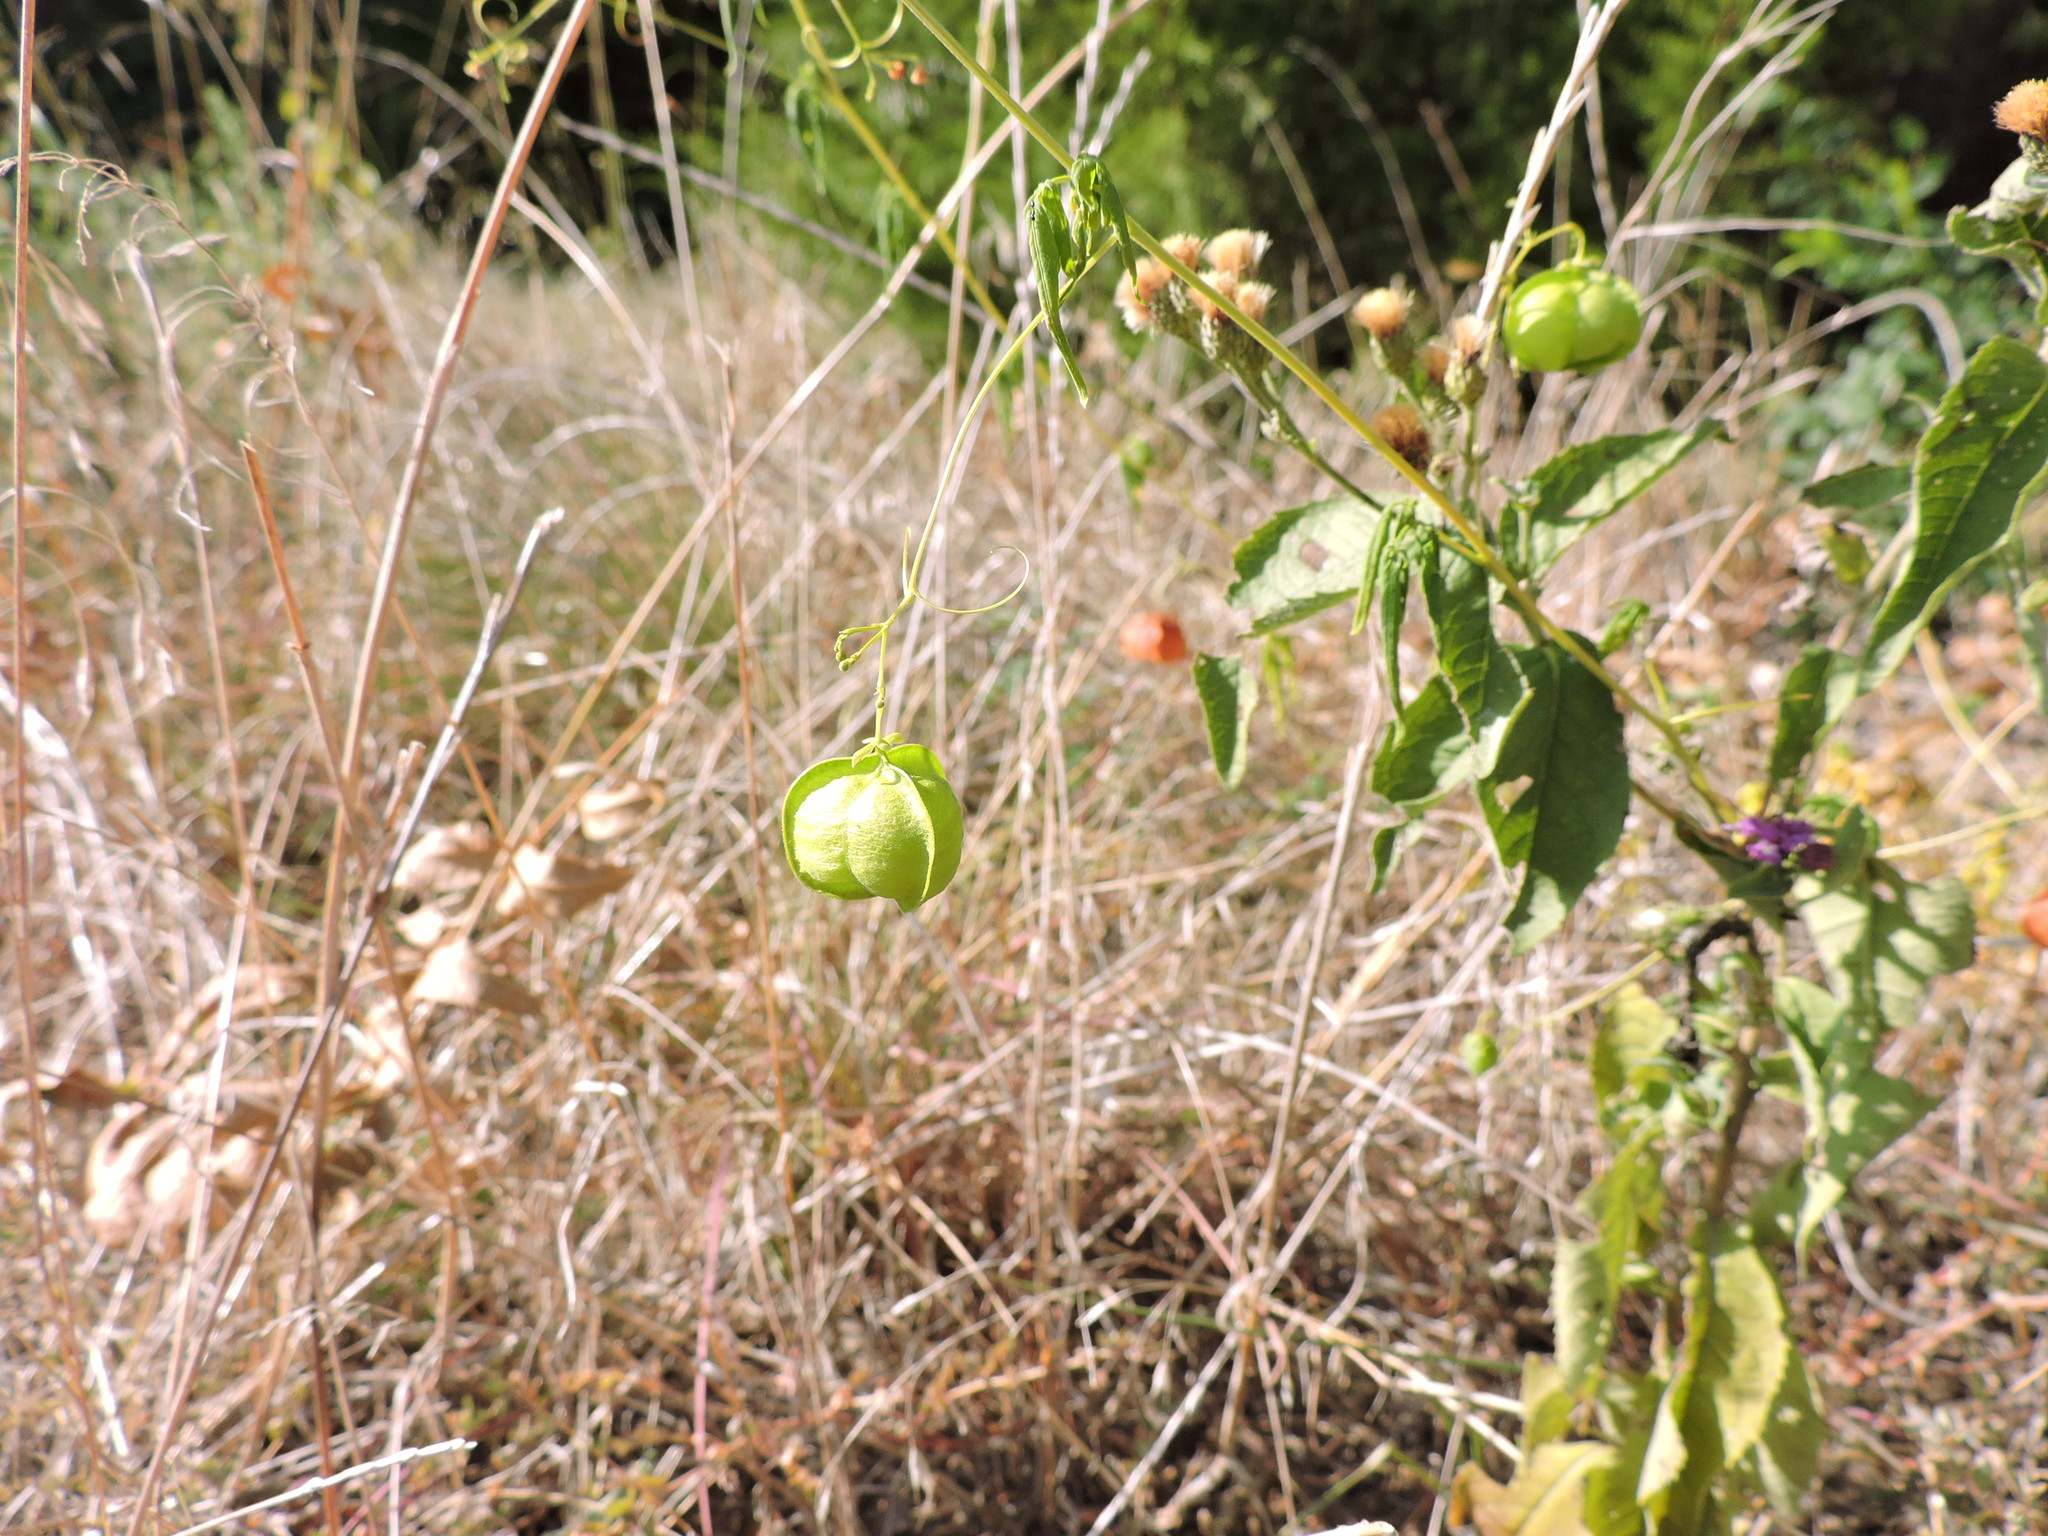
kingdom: Plantae
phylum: Tracheophyta
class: Magnoliopsida
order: Sapindales
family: Sapindaceae
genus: Cardiospermum
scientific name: Cardiospermum halicacabum
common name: Balloon vine
